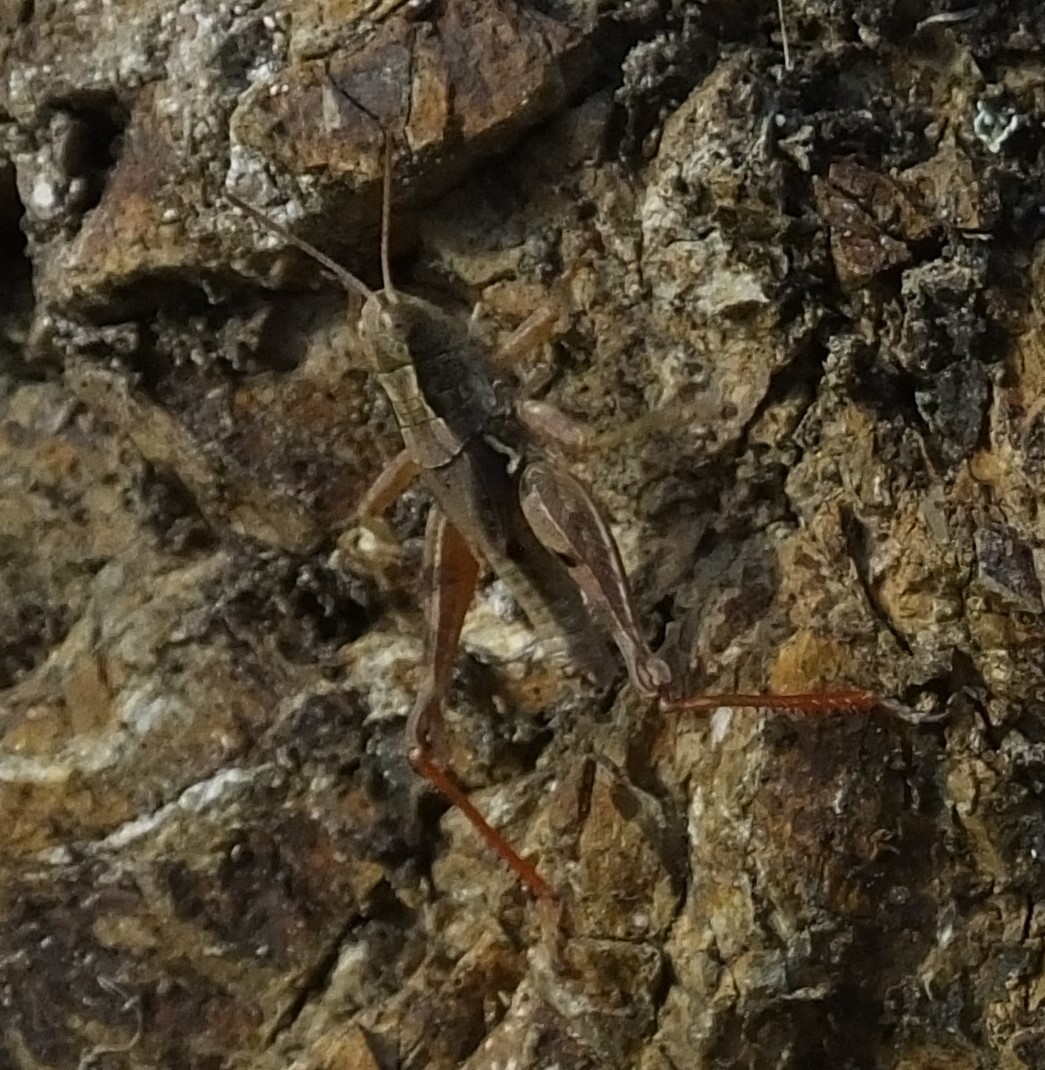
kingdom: Animalia
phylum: Arthropoda
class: Insecta
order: Orthoptera
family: Acrididae
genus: Phaulacridium
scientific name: Phaulacridium marginale
